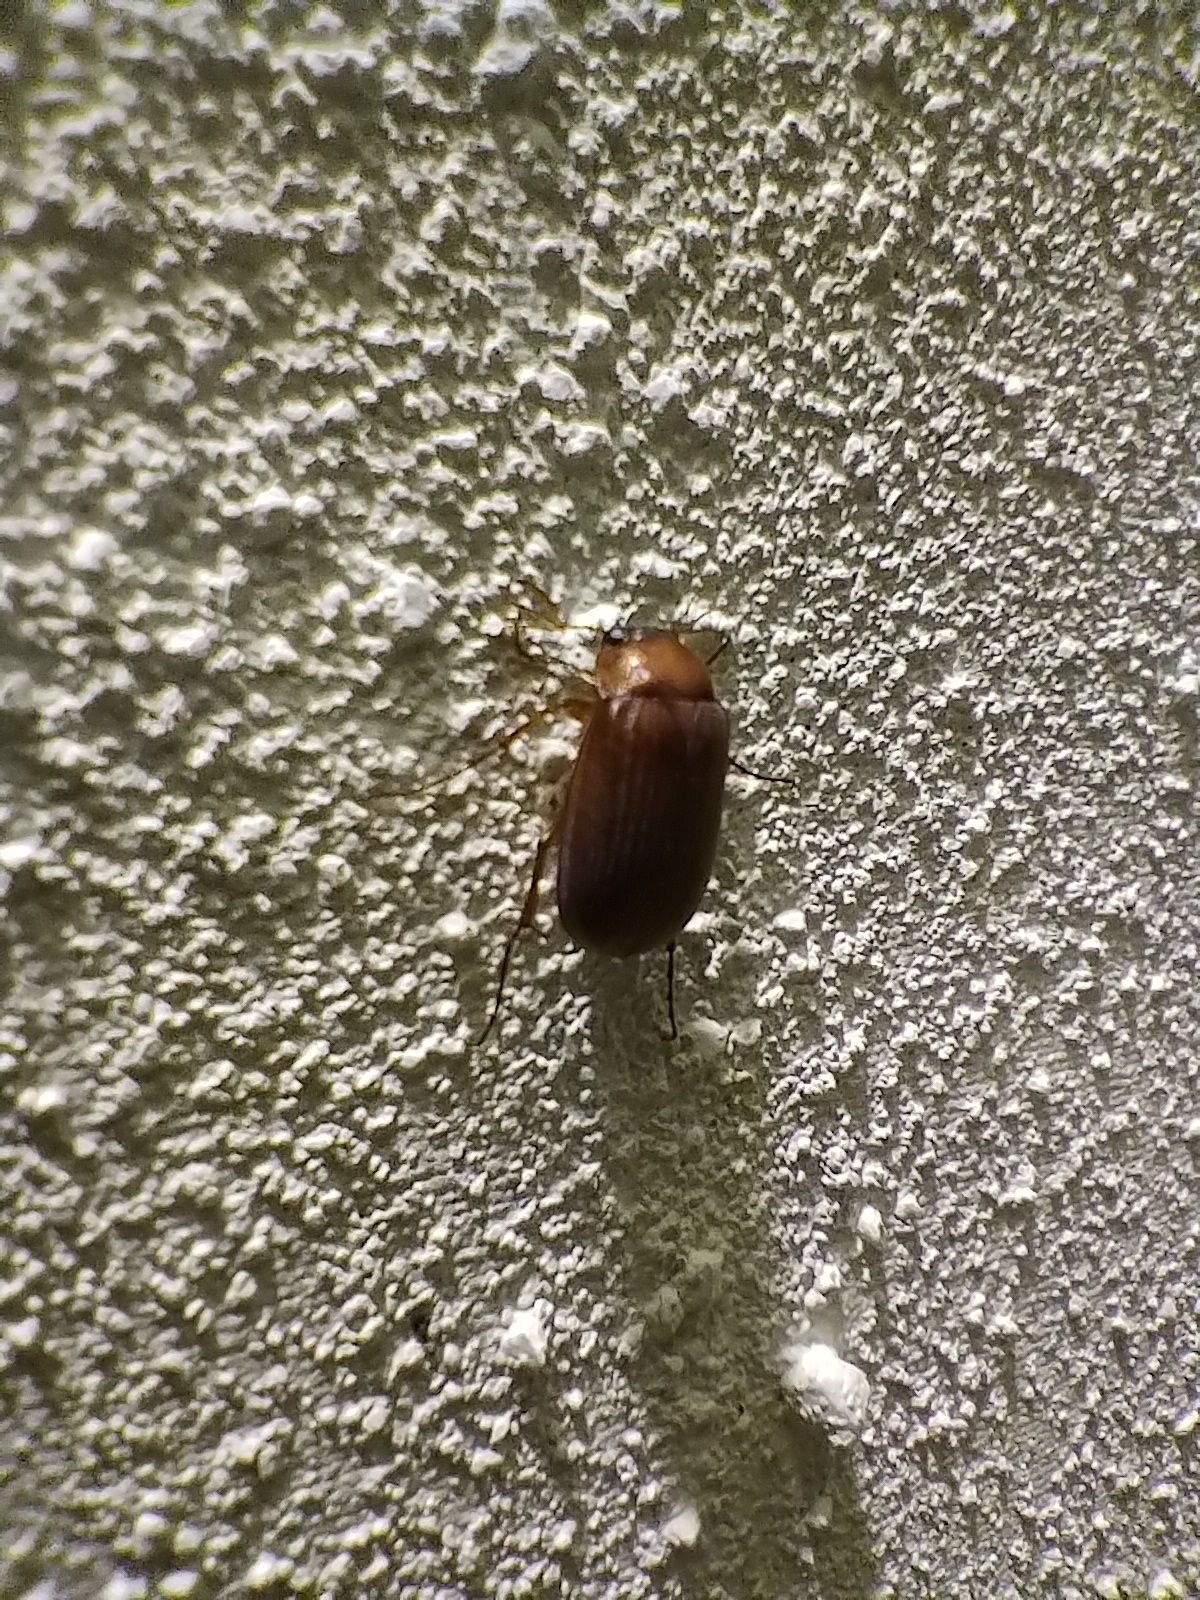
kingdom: Animalia
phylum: Arthropoda
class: Insecta
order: Coleoptera
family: Scarabaeidae
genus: Serica
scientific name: Serica brunnea
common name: Brown chafer
